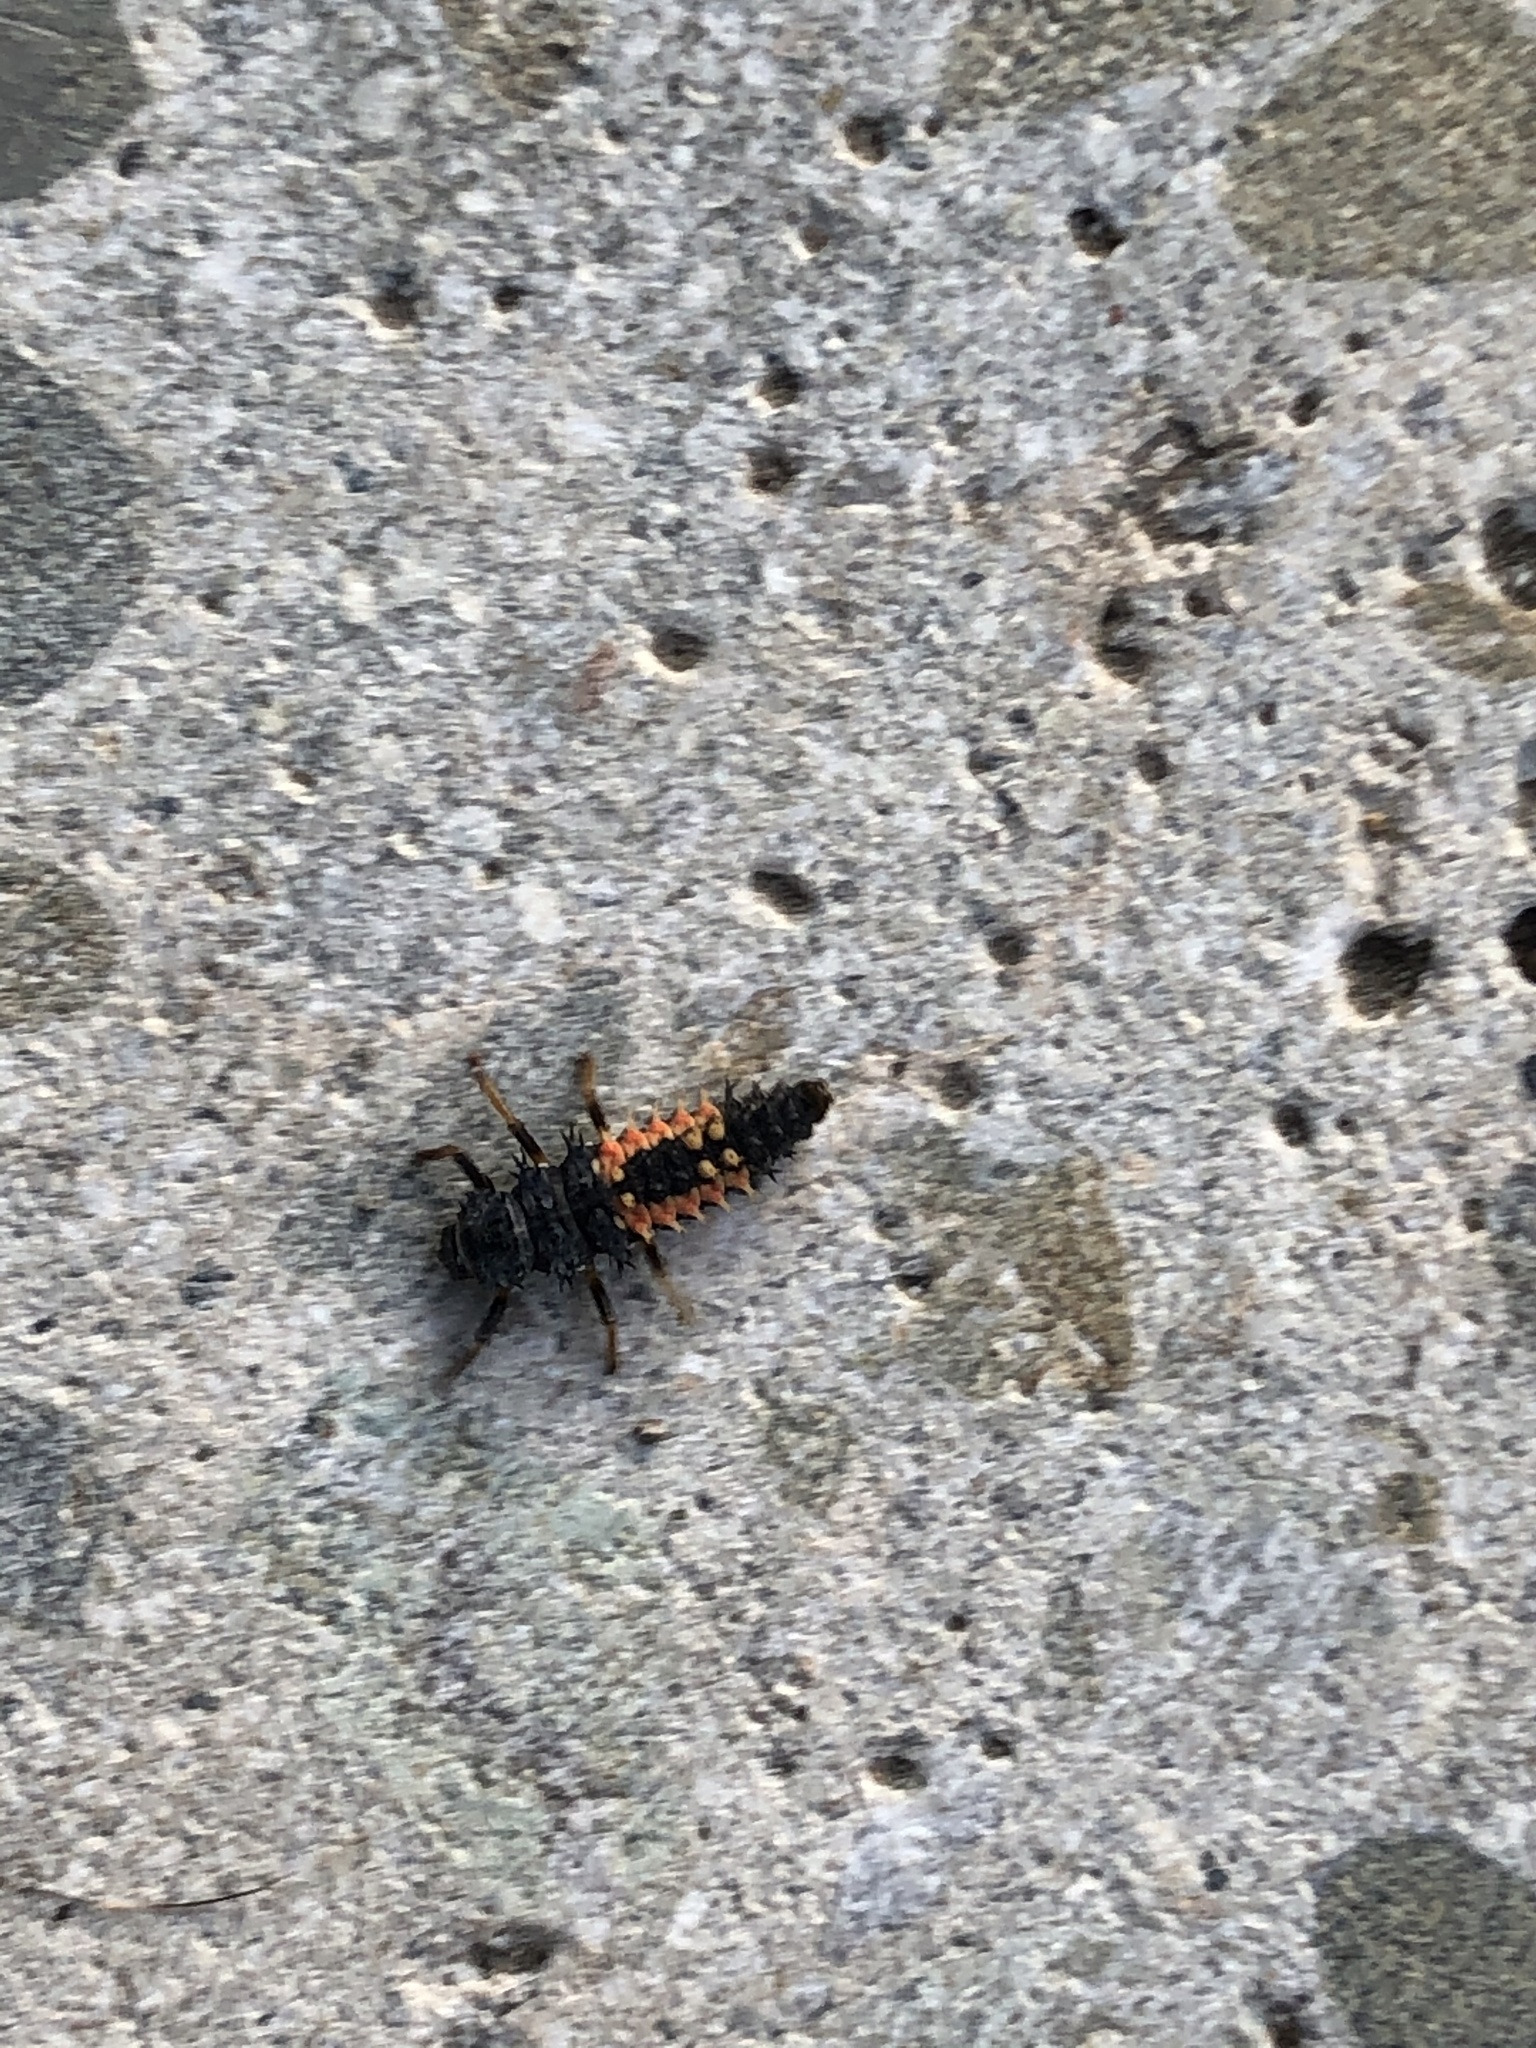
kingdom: Animalia
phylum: Arthropoda
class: Insecta
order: Coleoptera
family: Coccinellidae
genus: Harmonia
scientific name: Harmonia axyridis
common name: Harlequin ladybird
